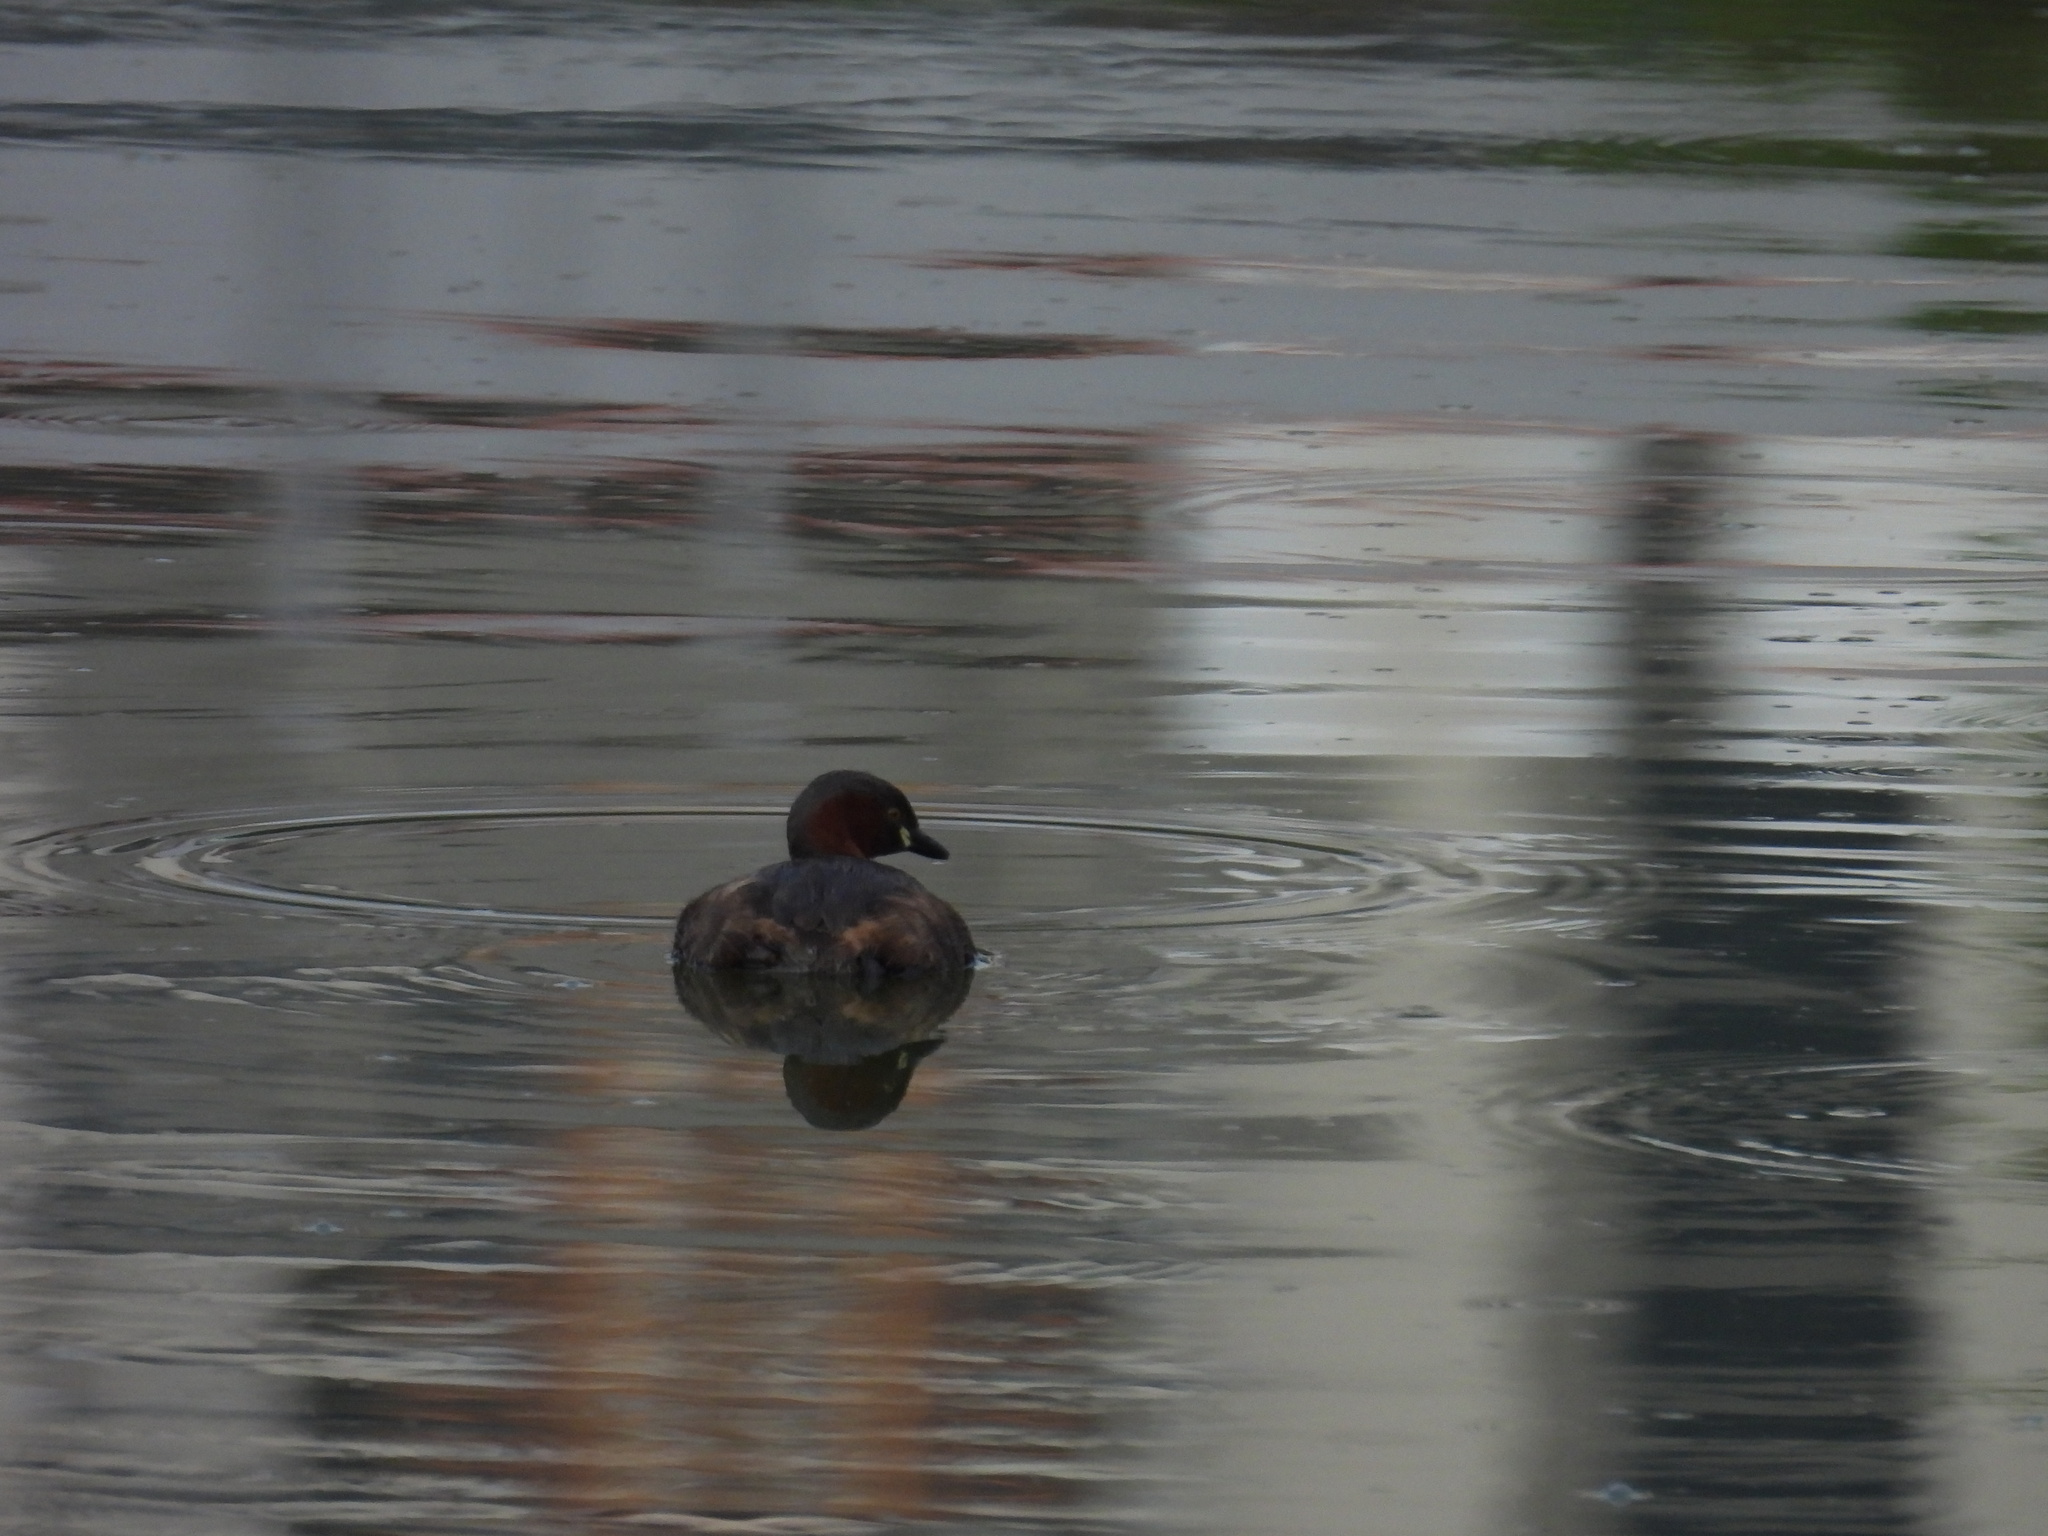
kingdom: Animalia
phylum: Chordata
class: Aves
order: Podicipediformes
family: Podicipedidae
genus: Tachybaptus
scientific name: Tachybaptus ruficollis
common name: Little grebe
